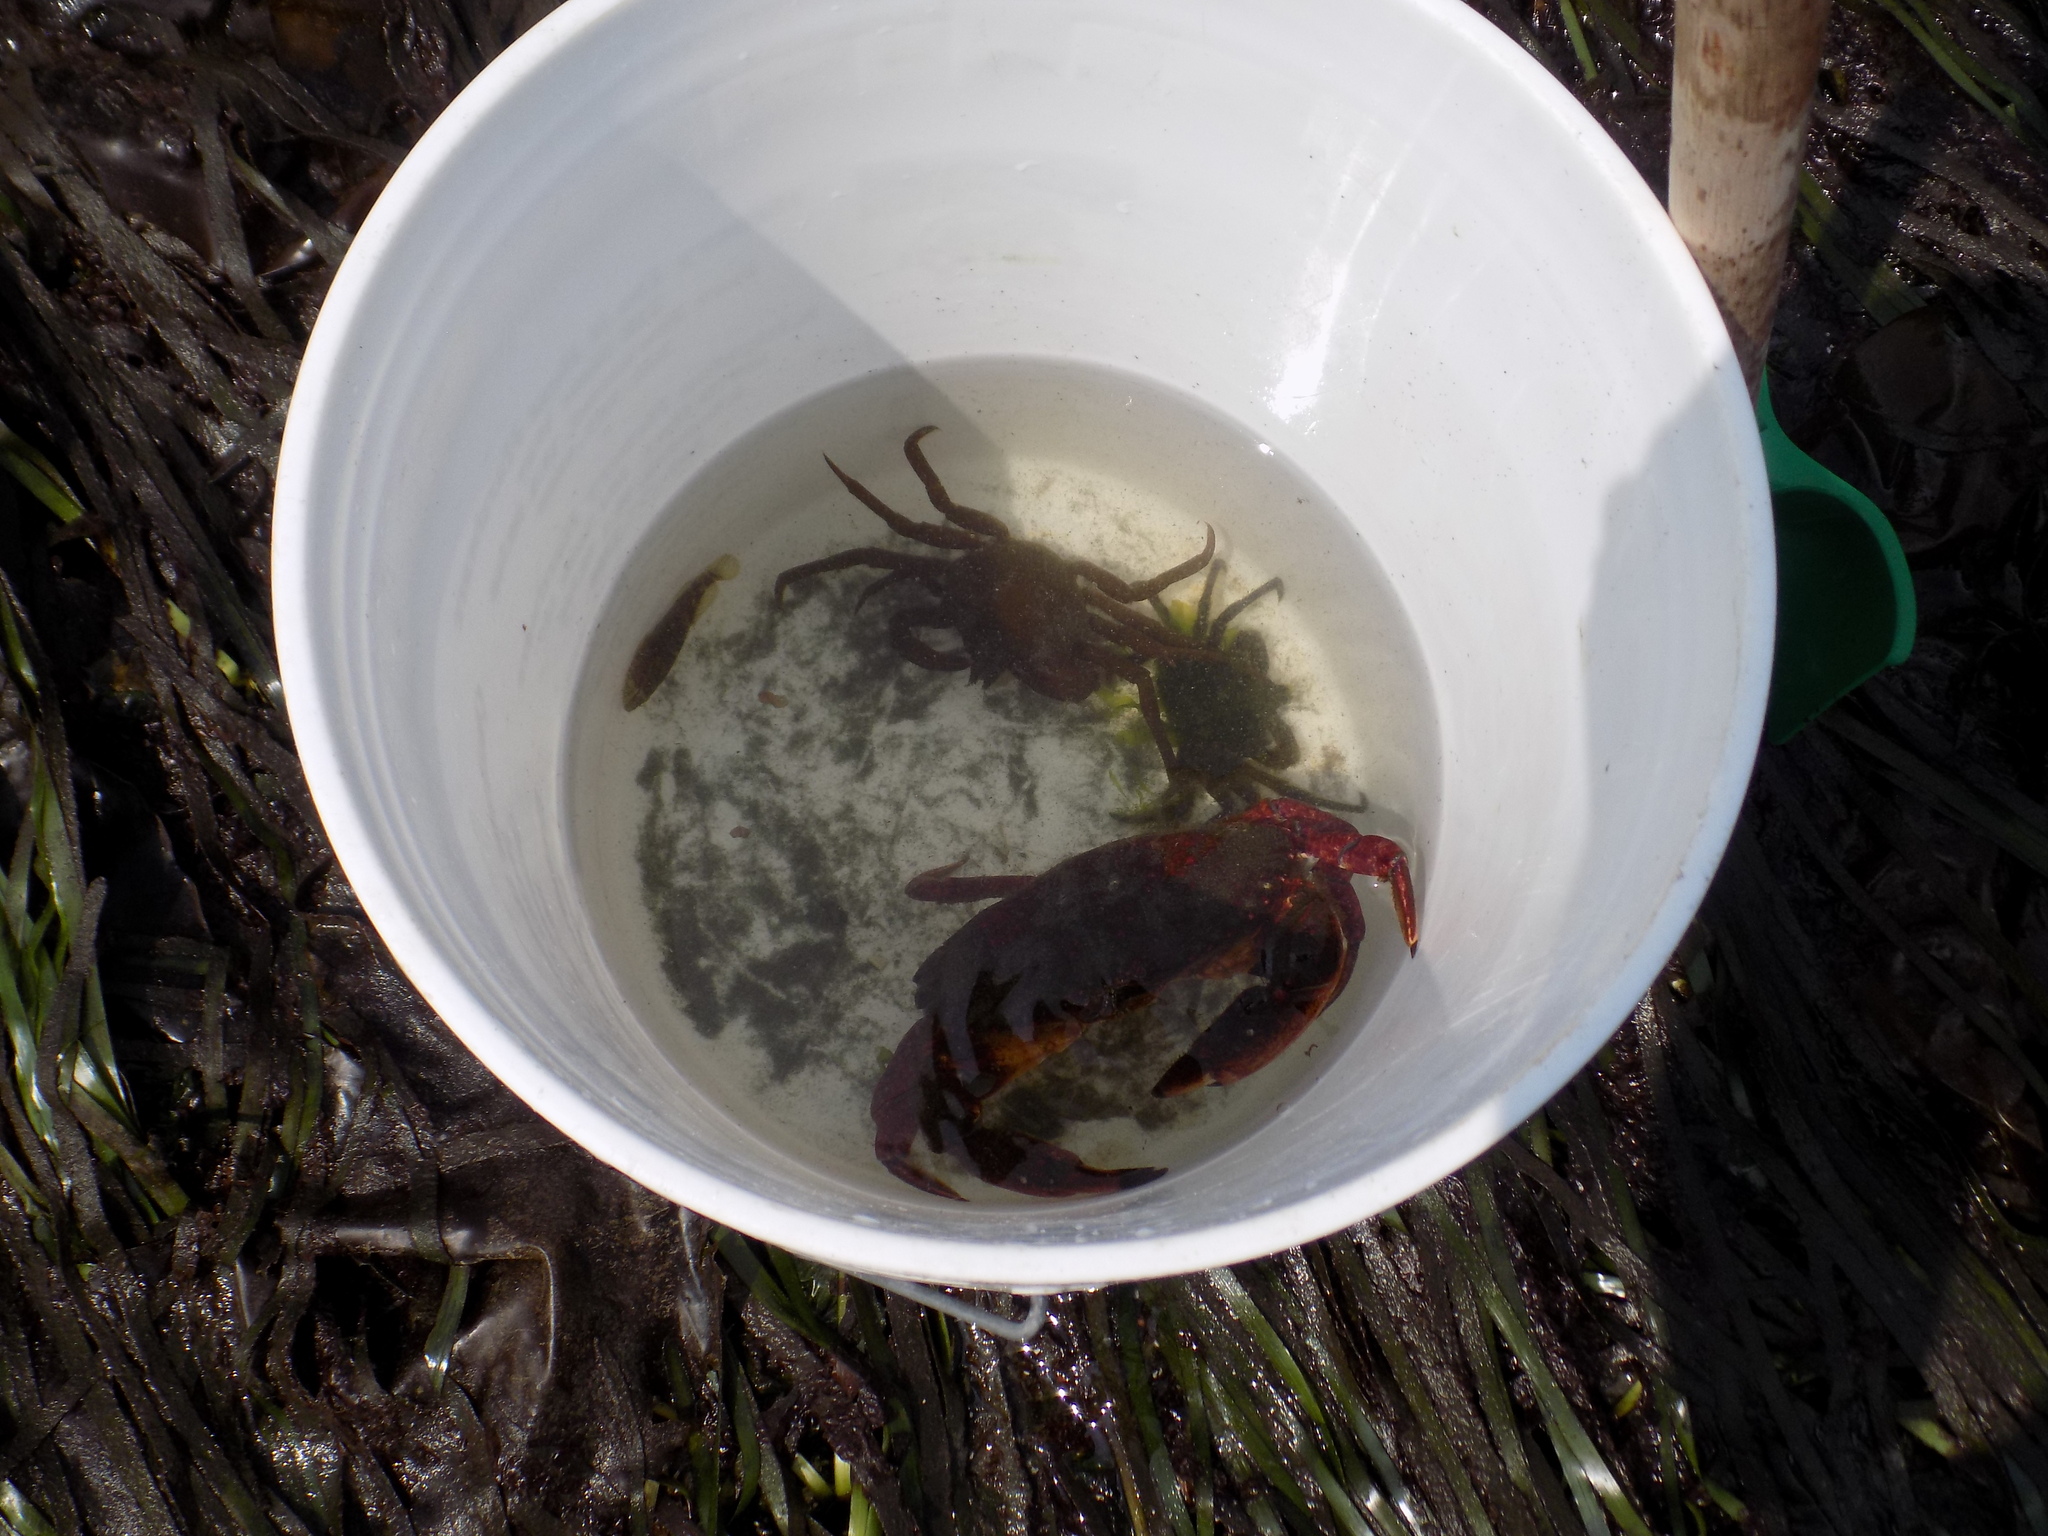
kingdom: Animalia
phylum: Arthropoda
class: Malacostraca
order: Decapoda
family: Cancridae
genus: Cancer
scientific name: Cancer productus
